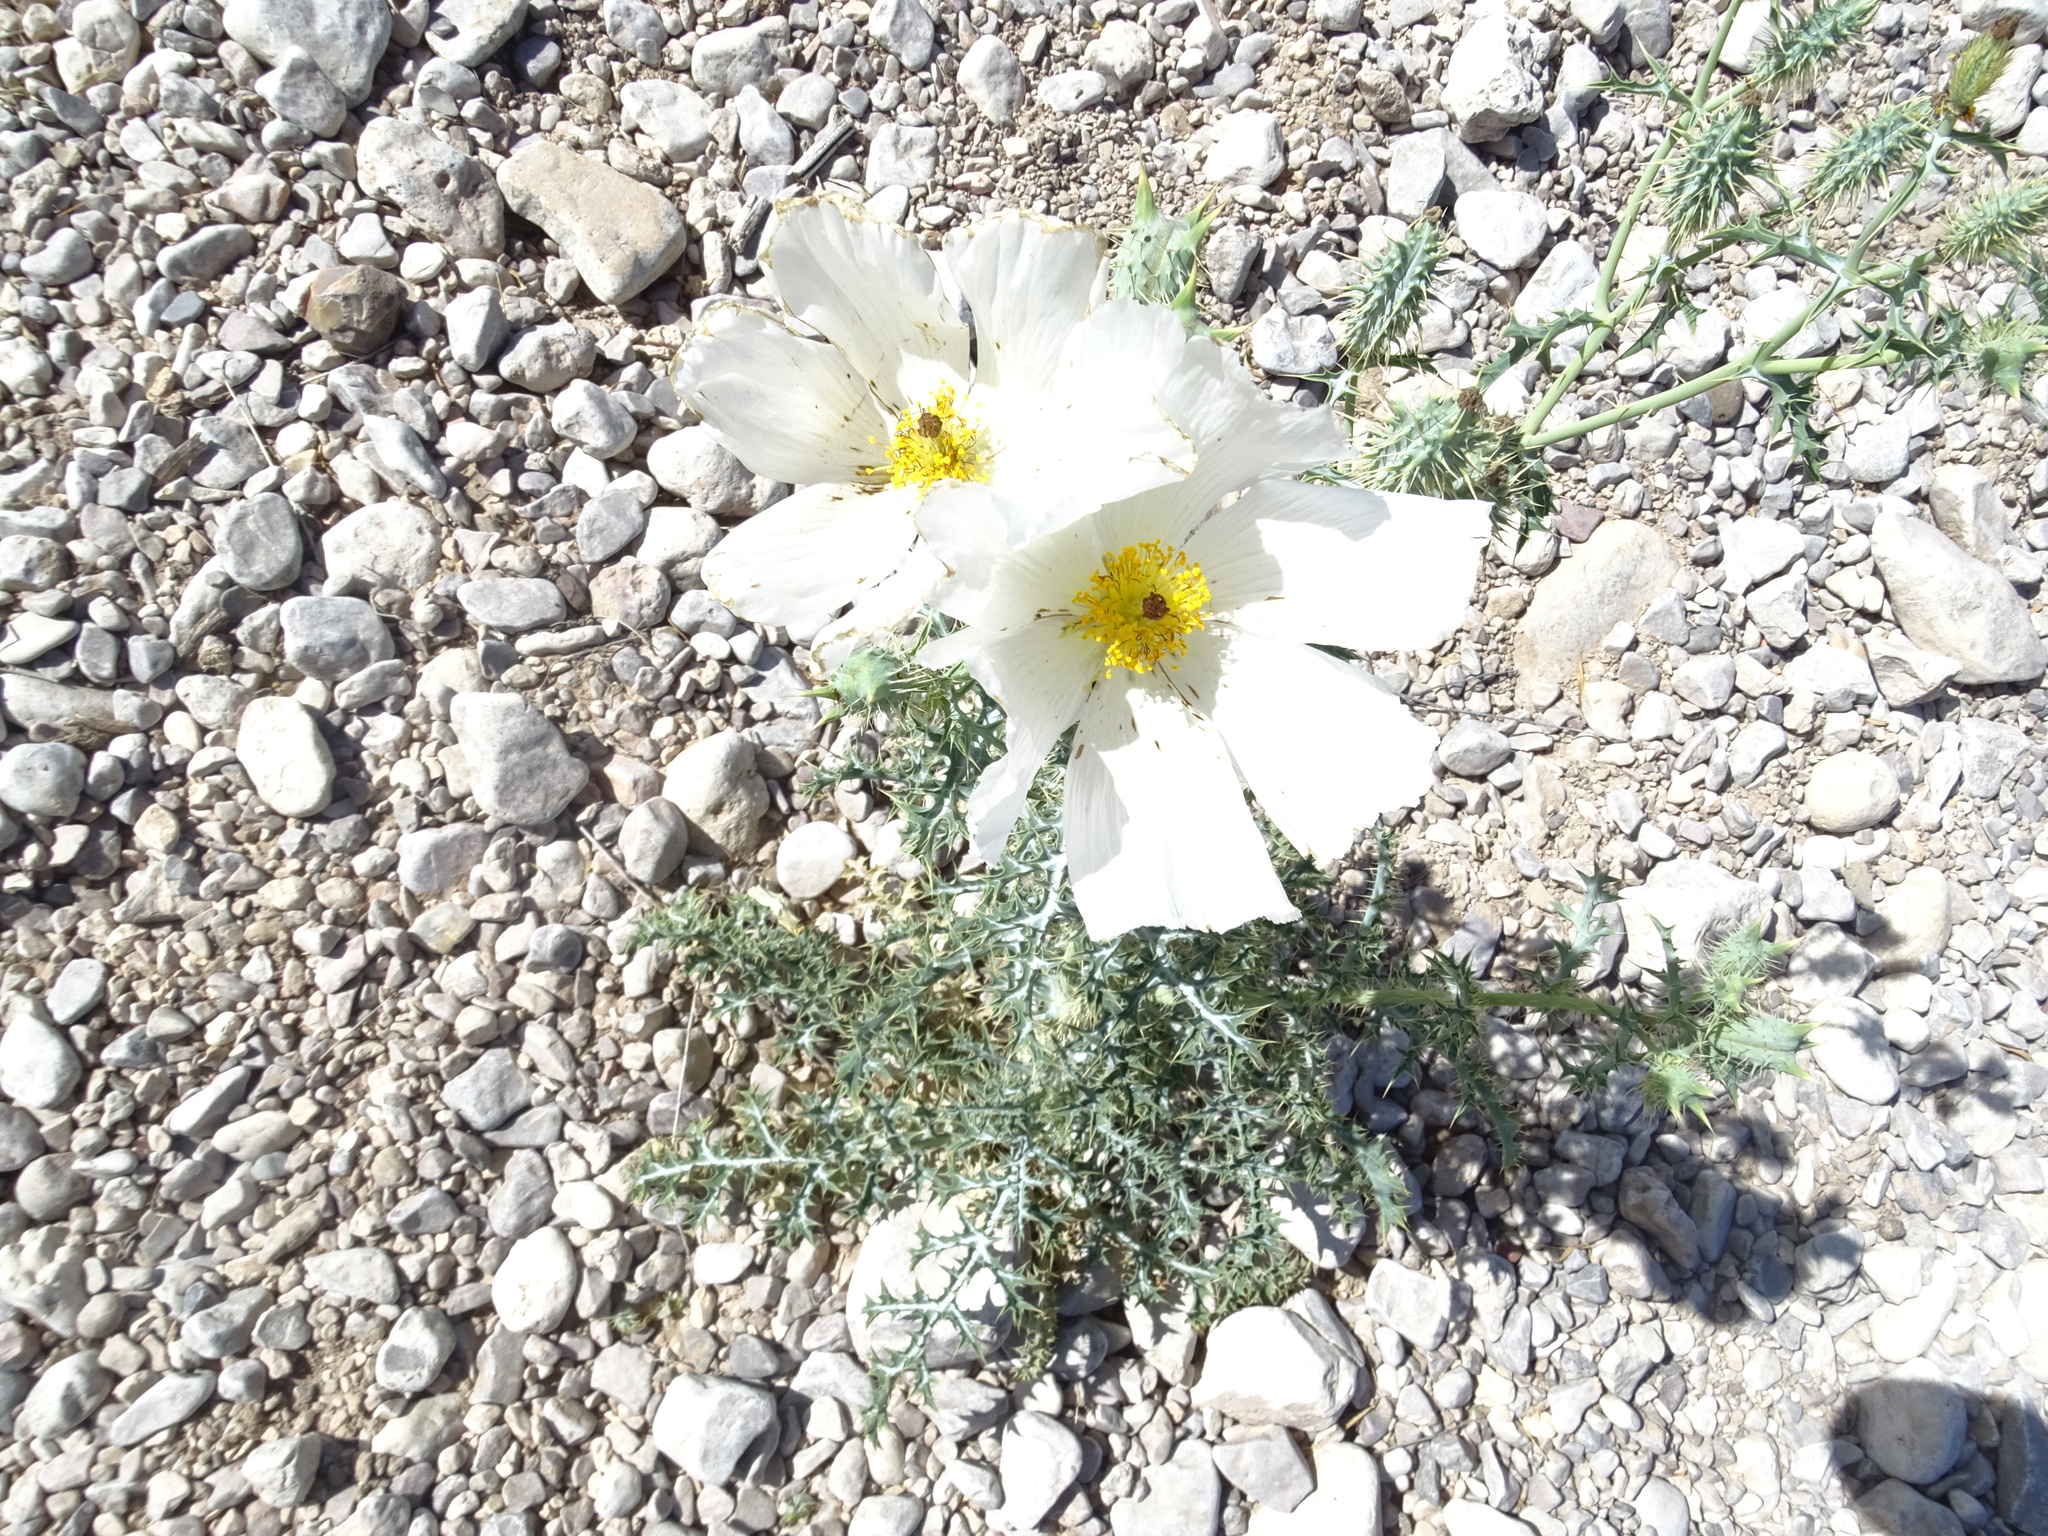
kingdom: Plantae
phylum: Tracheophyta
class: Magnoliopsida
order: Ranunculales
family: Papaveraceae
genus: Argemone
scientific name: Argemone pleiacantha
